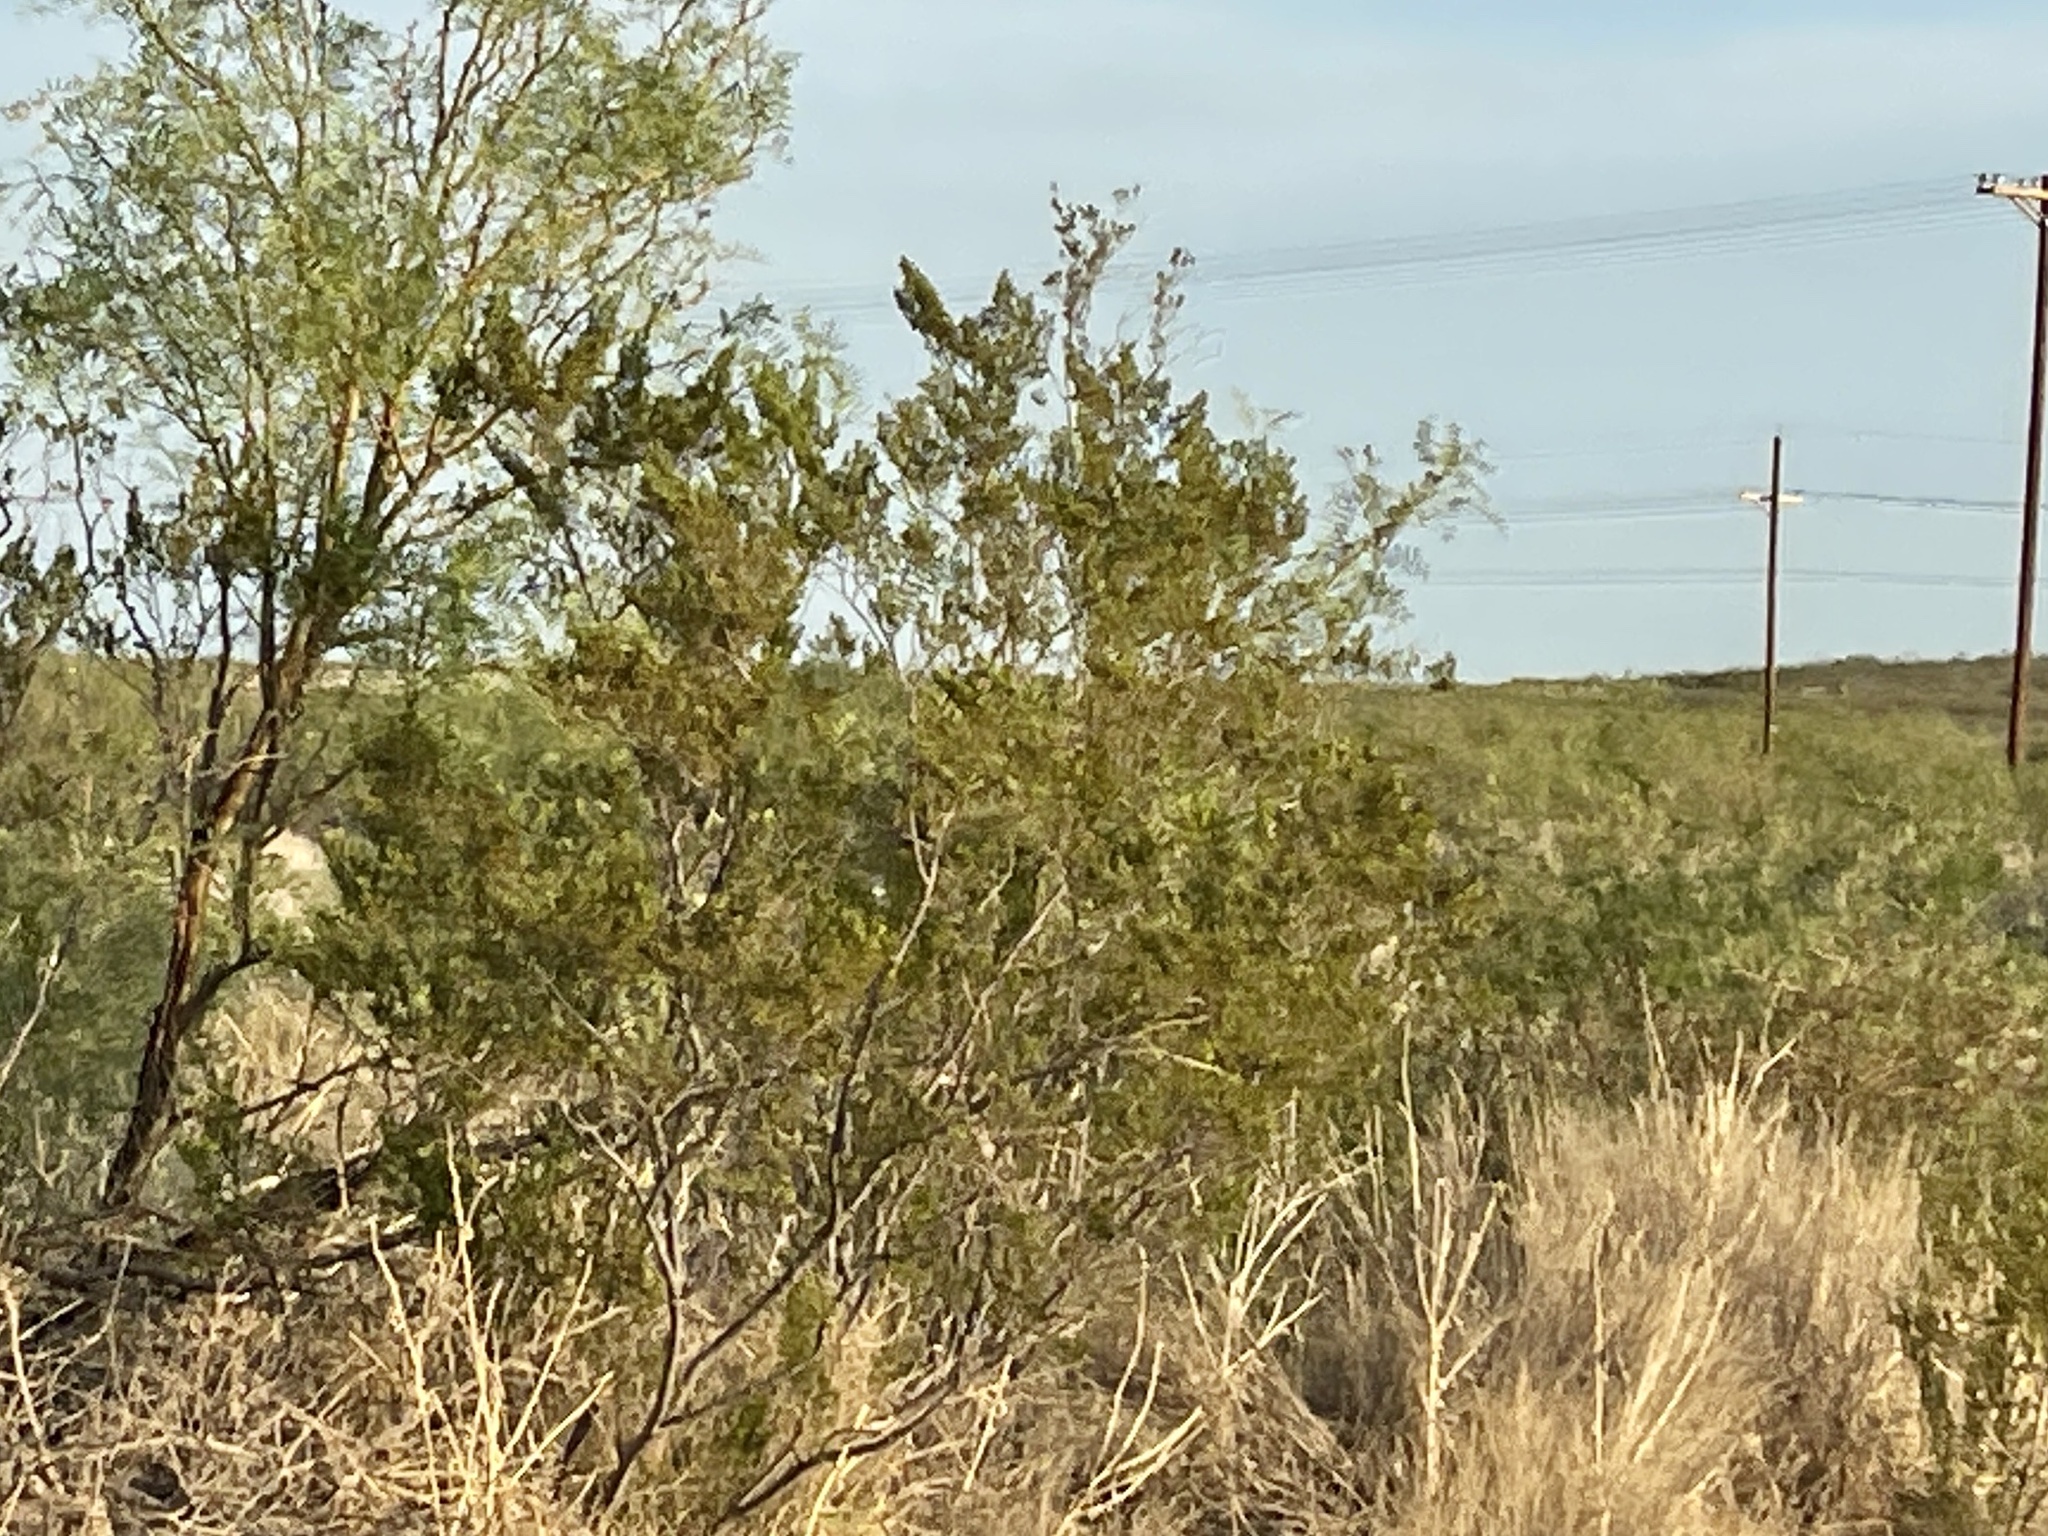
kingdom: Plantae
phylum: Tracheophyta
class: Magnoliopsida
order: Zygophyllales
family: Zygophyllaceae
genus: Larrea
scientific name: Larrea tridentata
